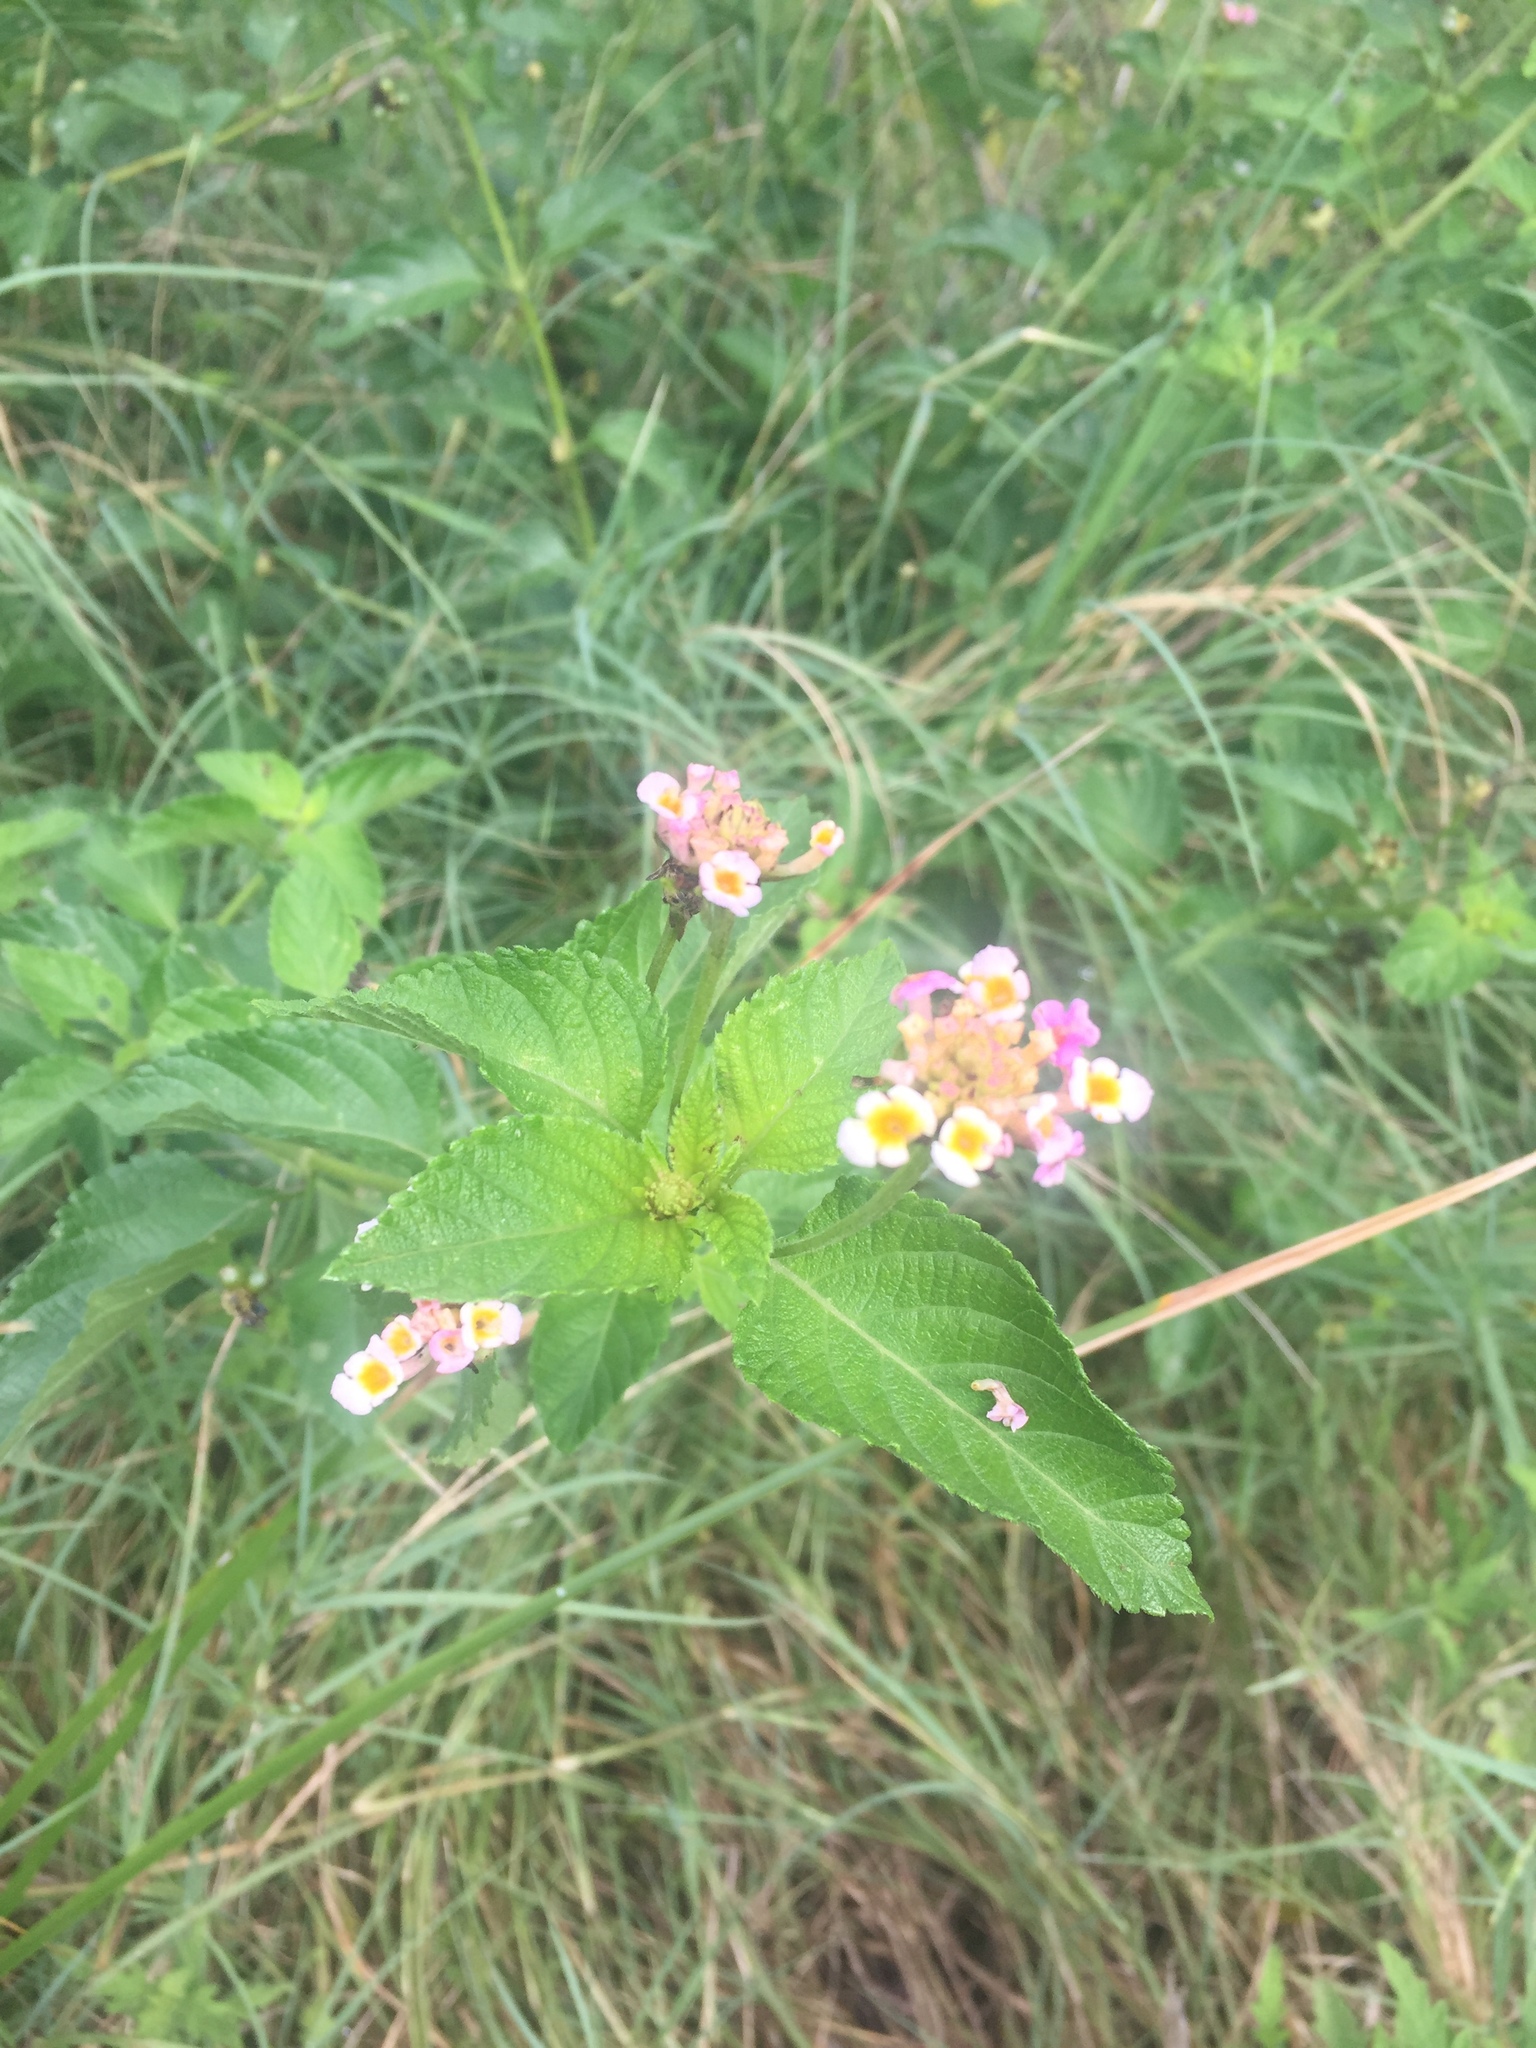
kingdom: Plantae
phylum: Tracheophyta
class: Magnoliopsida
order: Lamiales
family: Verbenaceae
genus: Lantana
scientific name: Lantana strigocamara
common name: Lantana
